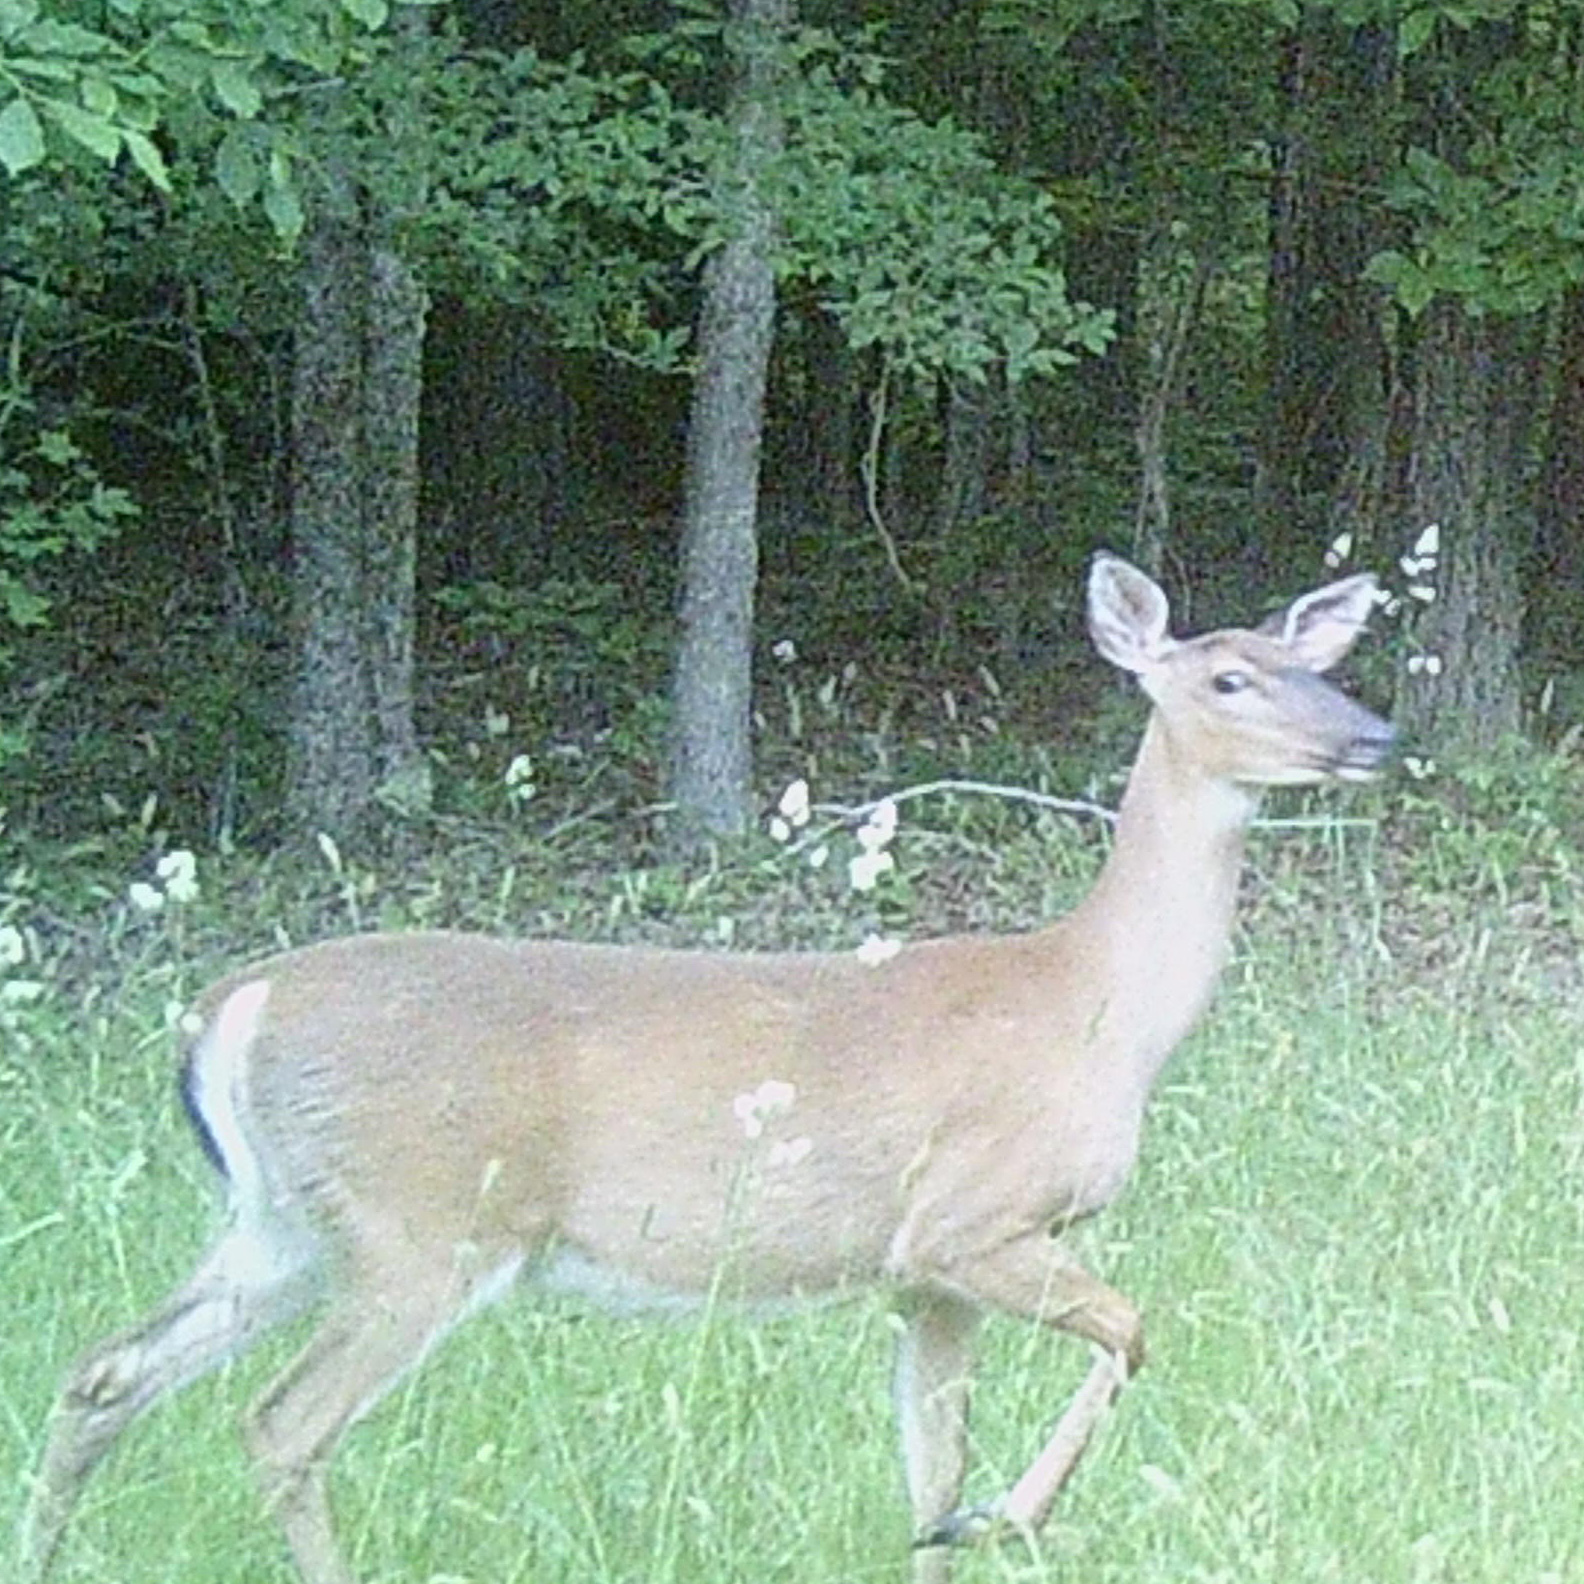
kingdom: Animalia
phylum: Chordata
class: Mammalia
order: Artiodactyla
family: Cervidae
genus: Odocoileus
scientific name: Odocoileus virginianus
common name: White-tailed deer
